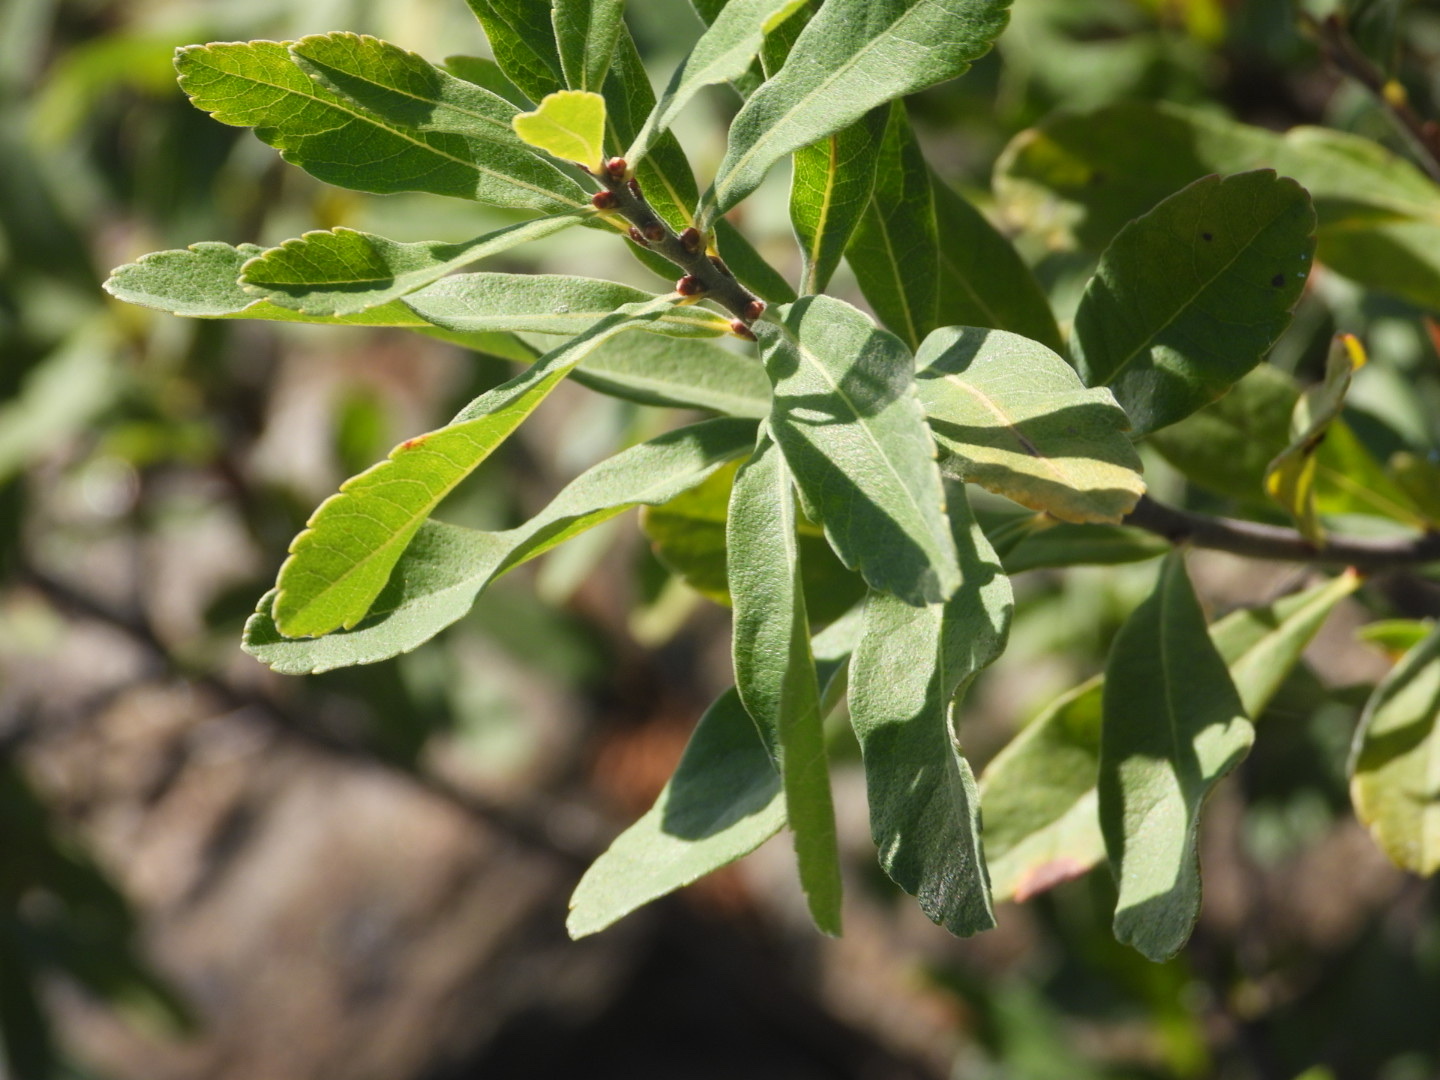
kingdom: Plantae
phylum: Tracheophyta
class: Magnoliopsida
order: Fagales
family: Myricaceae
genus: Myrica
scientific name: Myrica gale
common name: Sweet gale
